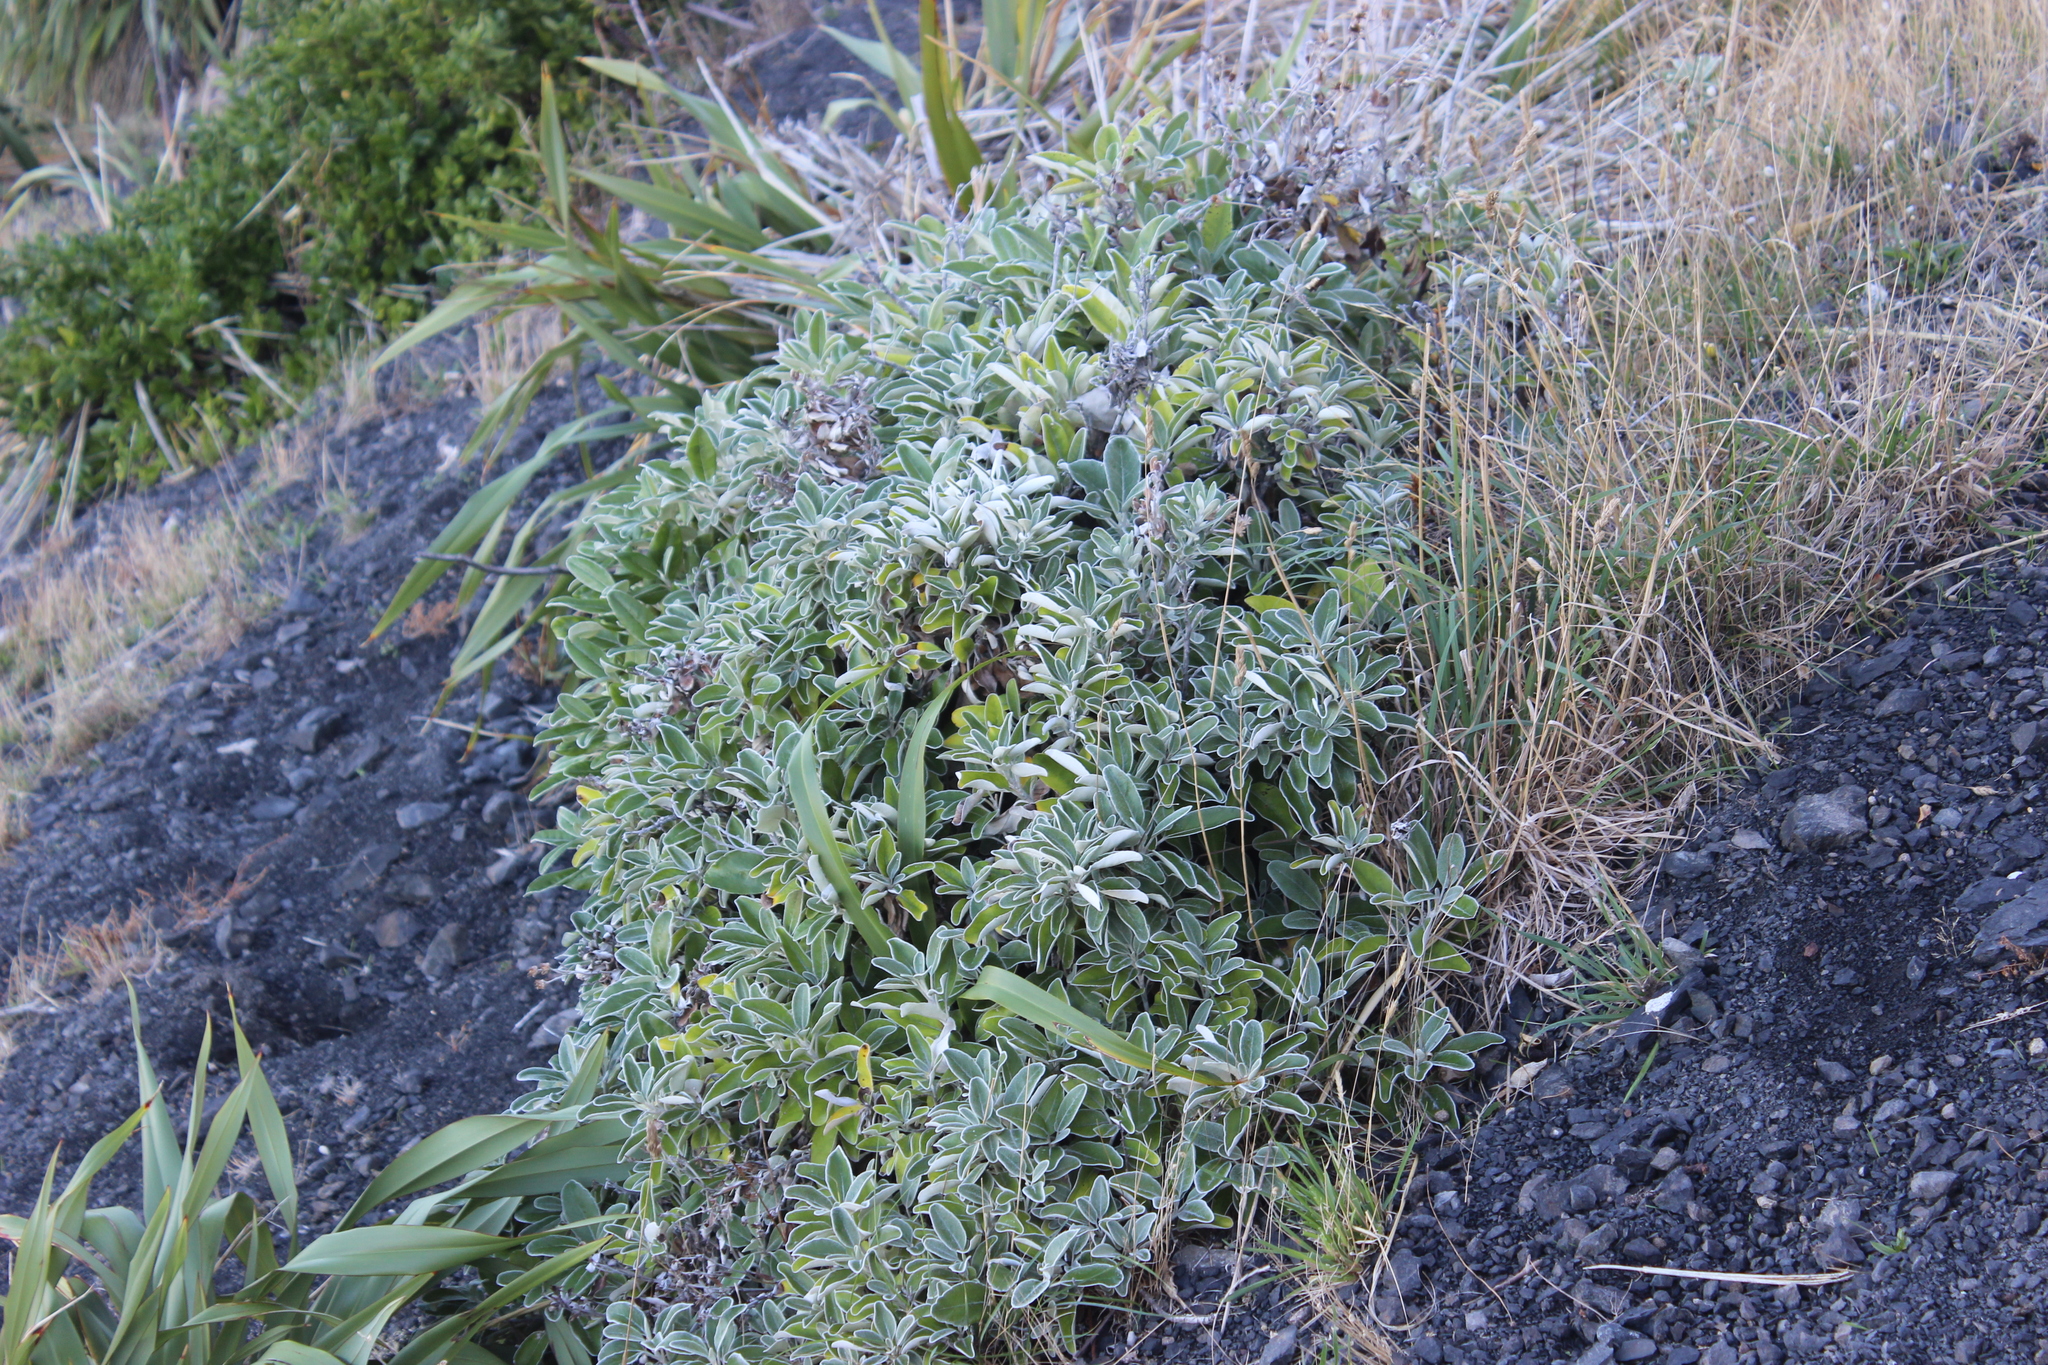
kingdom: Plantae
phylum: Tracheophyta
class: Magnoliopsida
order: Asterales
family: Asteraceae
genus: Brachyglottis
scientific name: Brachyglottis greyi
